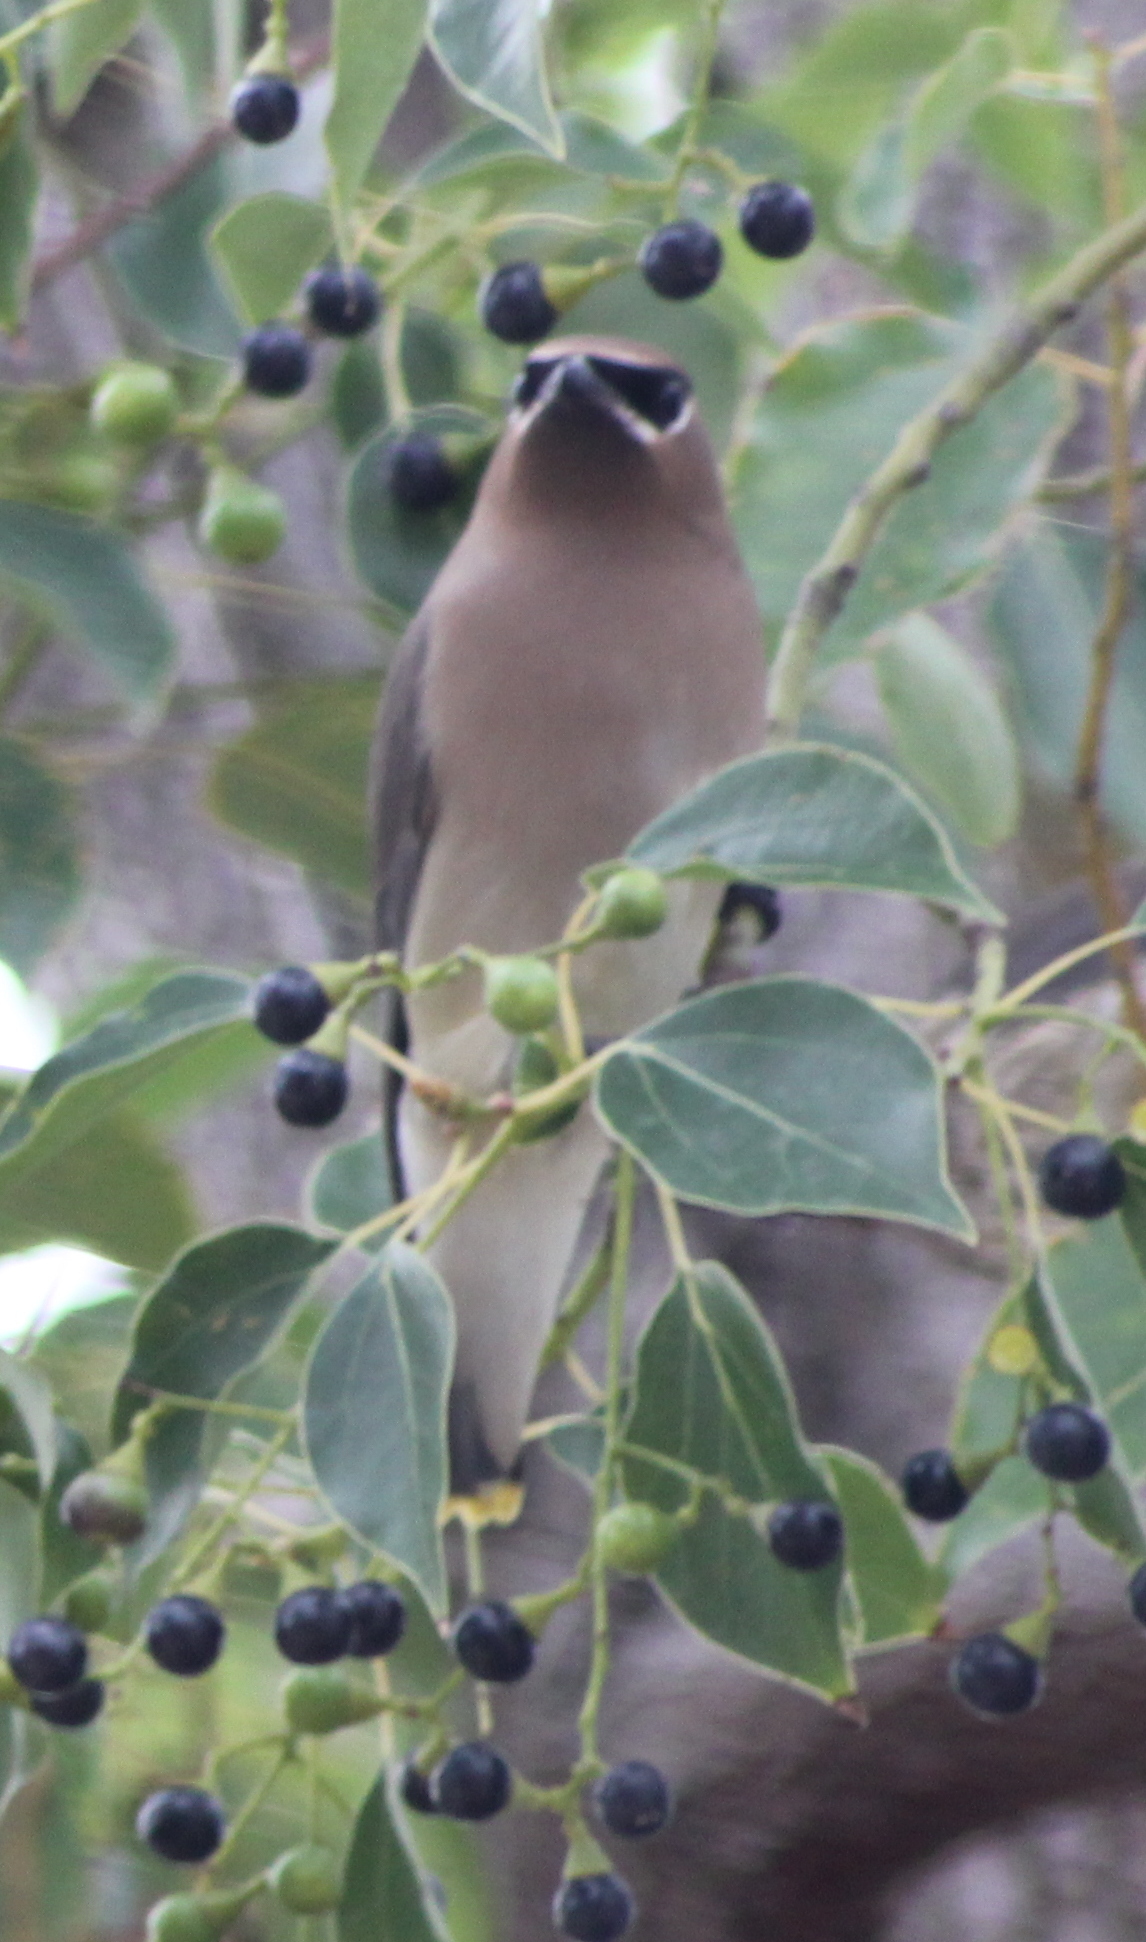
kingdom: Animalia
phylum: Chordata
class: Aves
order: Passeriformes
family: Bombycillidae
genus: Bombycilla
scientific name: Bombycilla cedrorum
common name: Cedar waxwing
